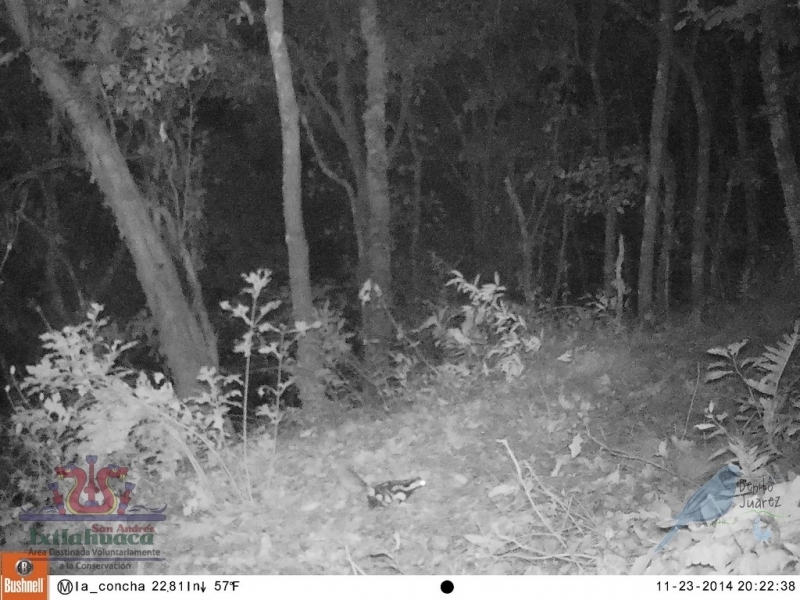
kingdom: Animalia
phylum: Chordata
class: Mammalia
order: Carnivora
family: Mephitidae
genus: Spilogale
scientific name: Spilogale angustifrons
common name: Southern spotted skunk
